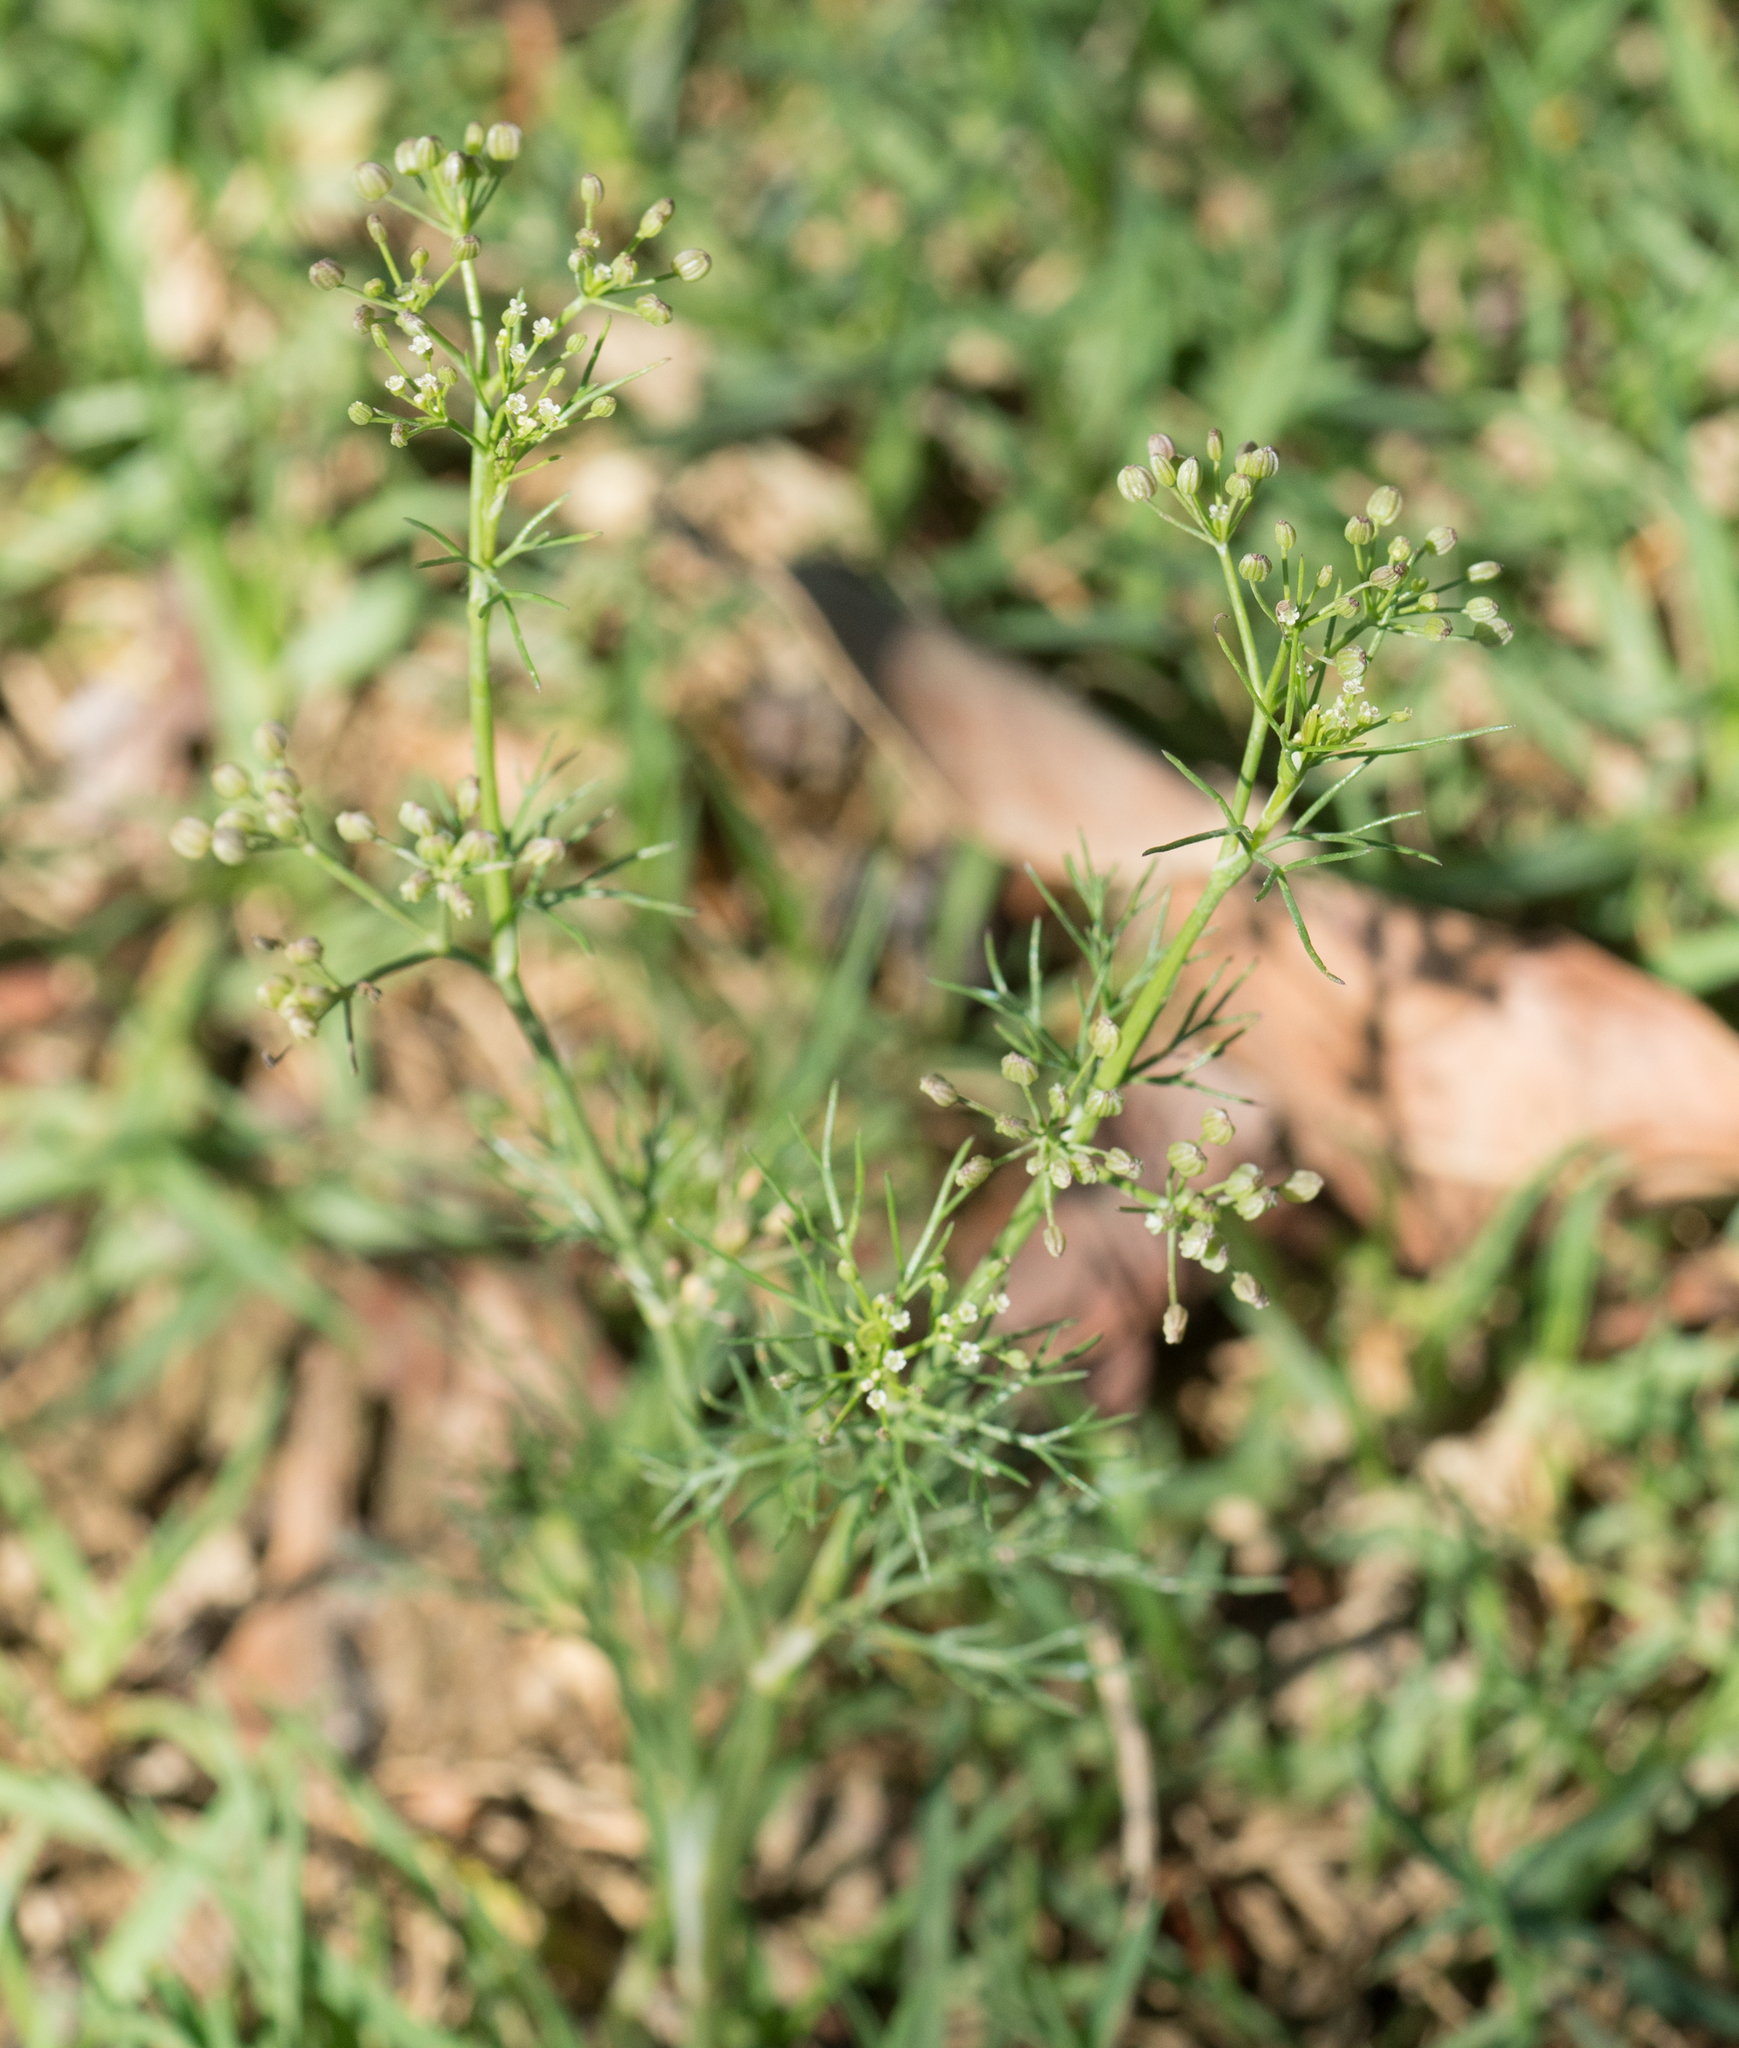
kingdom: Plantae
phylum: Tracheophyta
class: Magnoliopsida
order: Apiales
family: Apiaceae
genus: Apiastrum
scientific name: Apiastrum angustifolium
